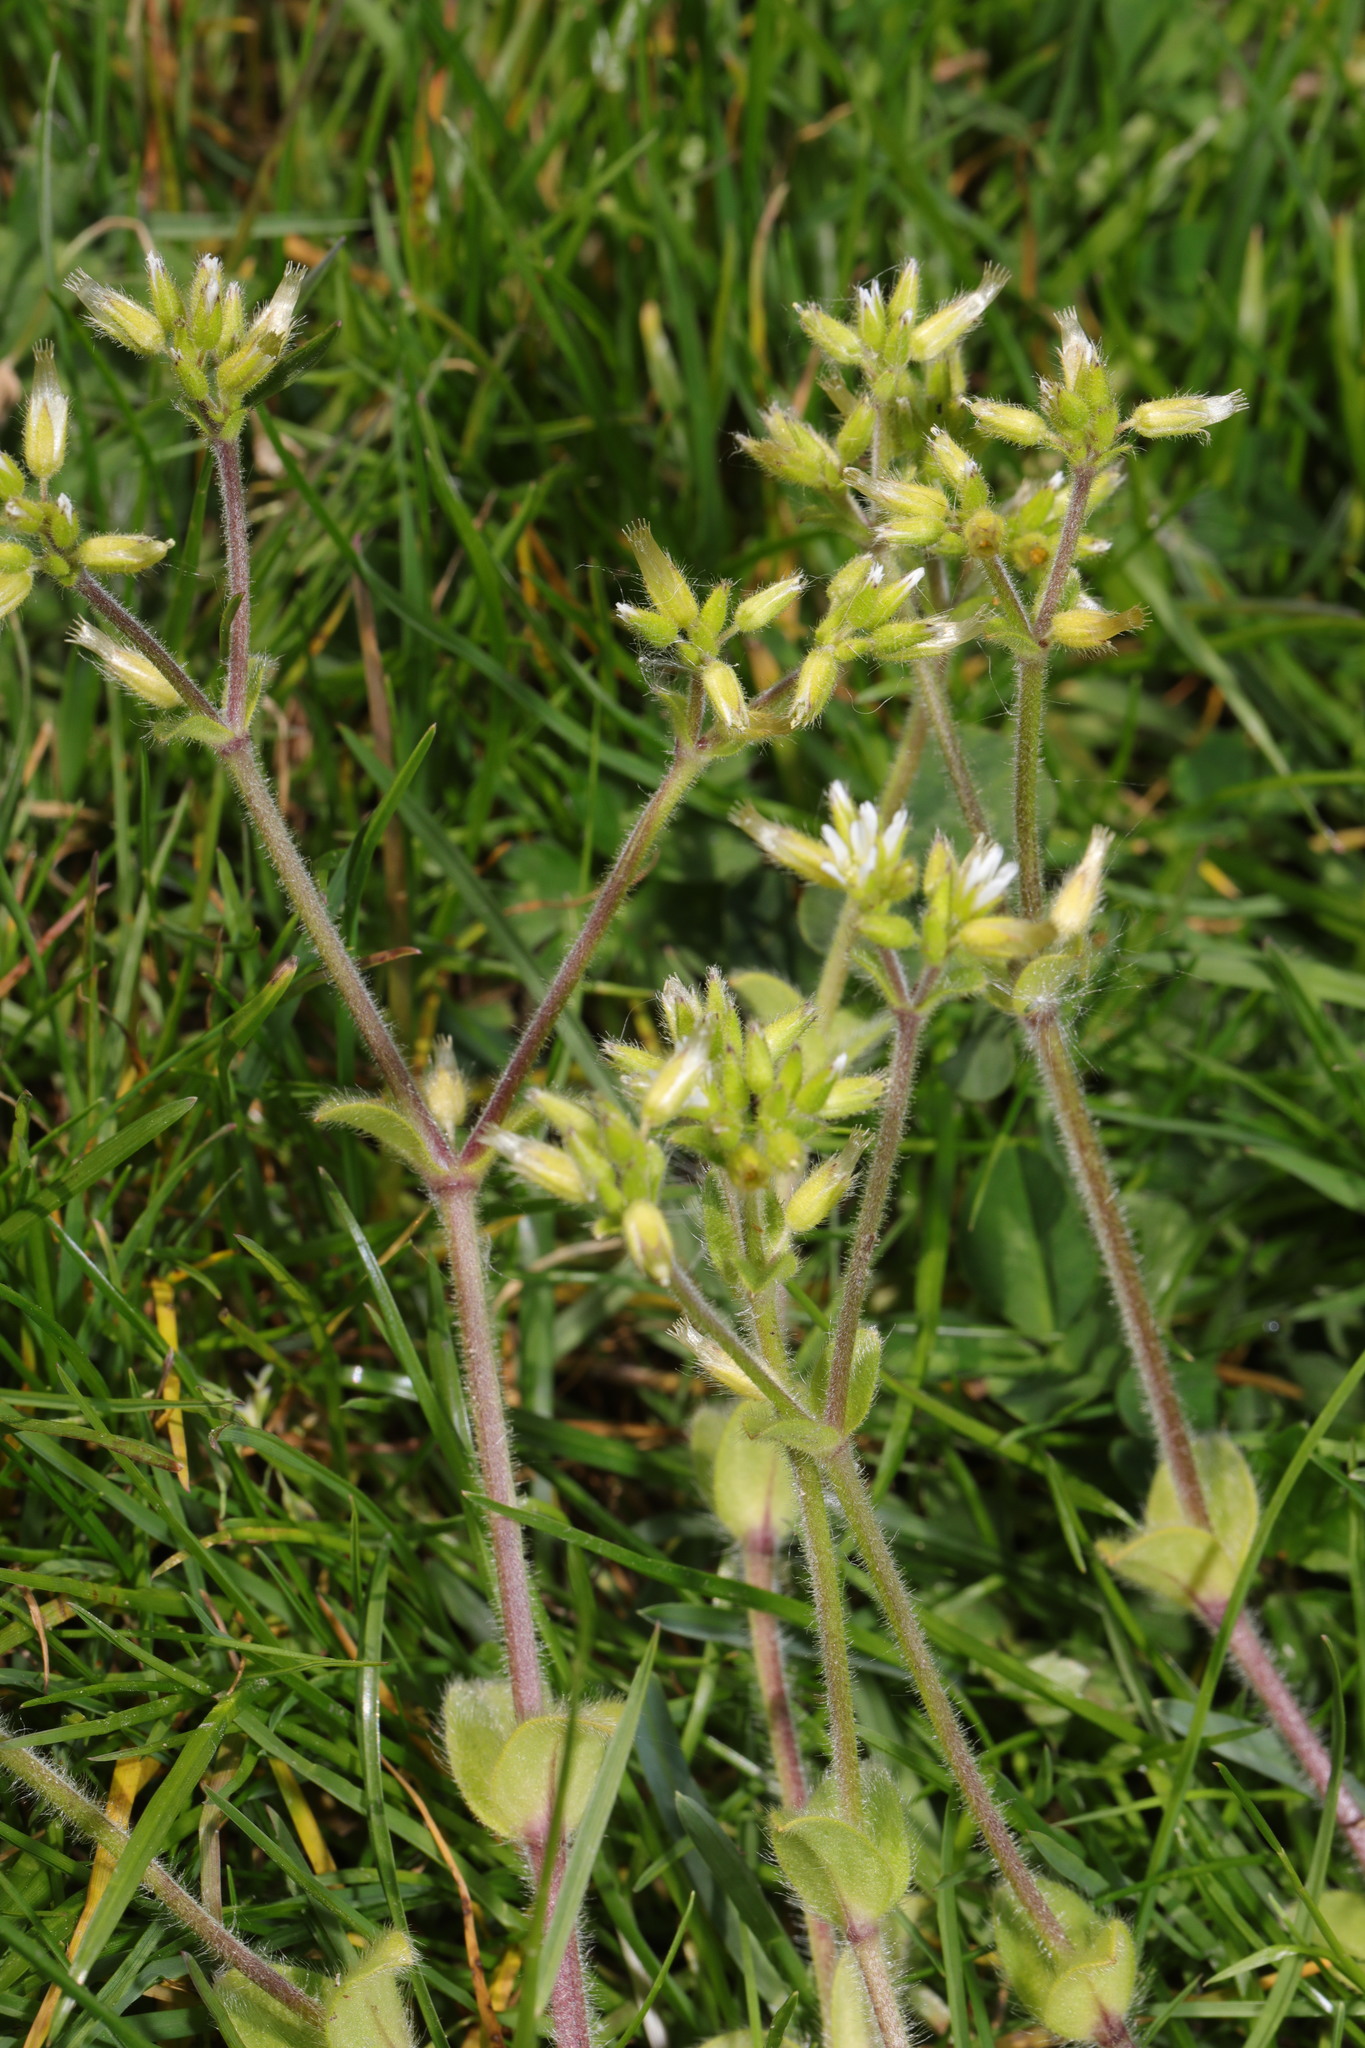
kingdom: Plantae
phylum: Tracheophyta
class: Magnoliopsida
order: Caryophyllales
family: Caryophyllaceae
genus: Cerastium
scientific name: Cerastium glomeratum
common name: Sticky chickweed
